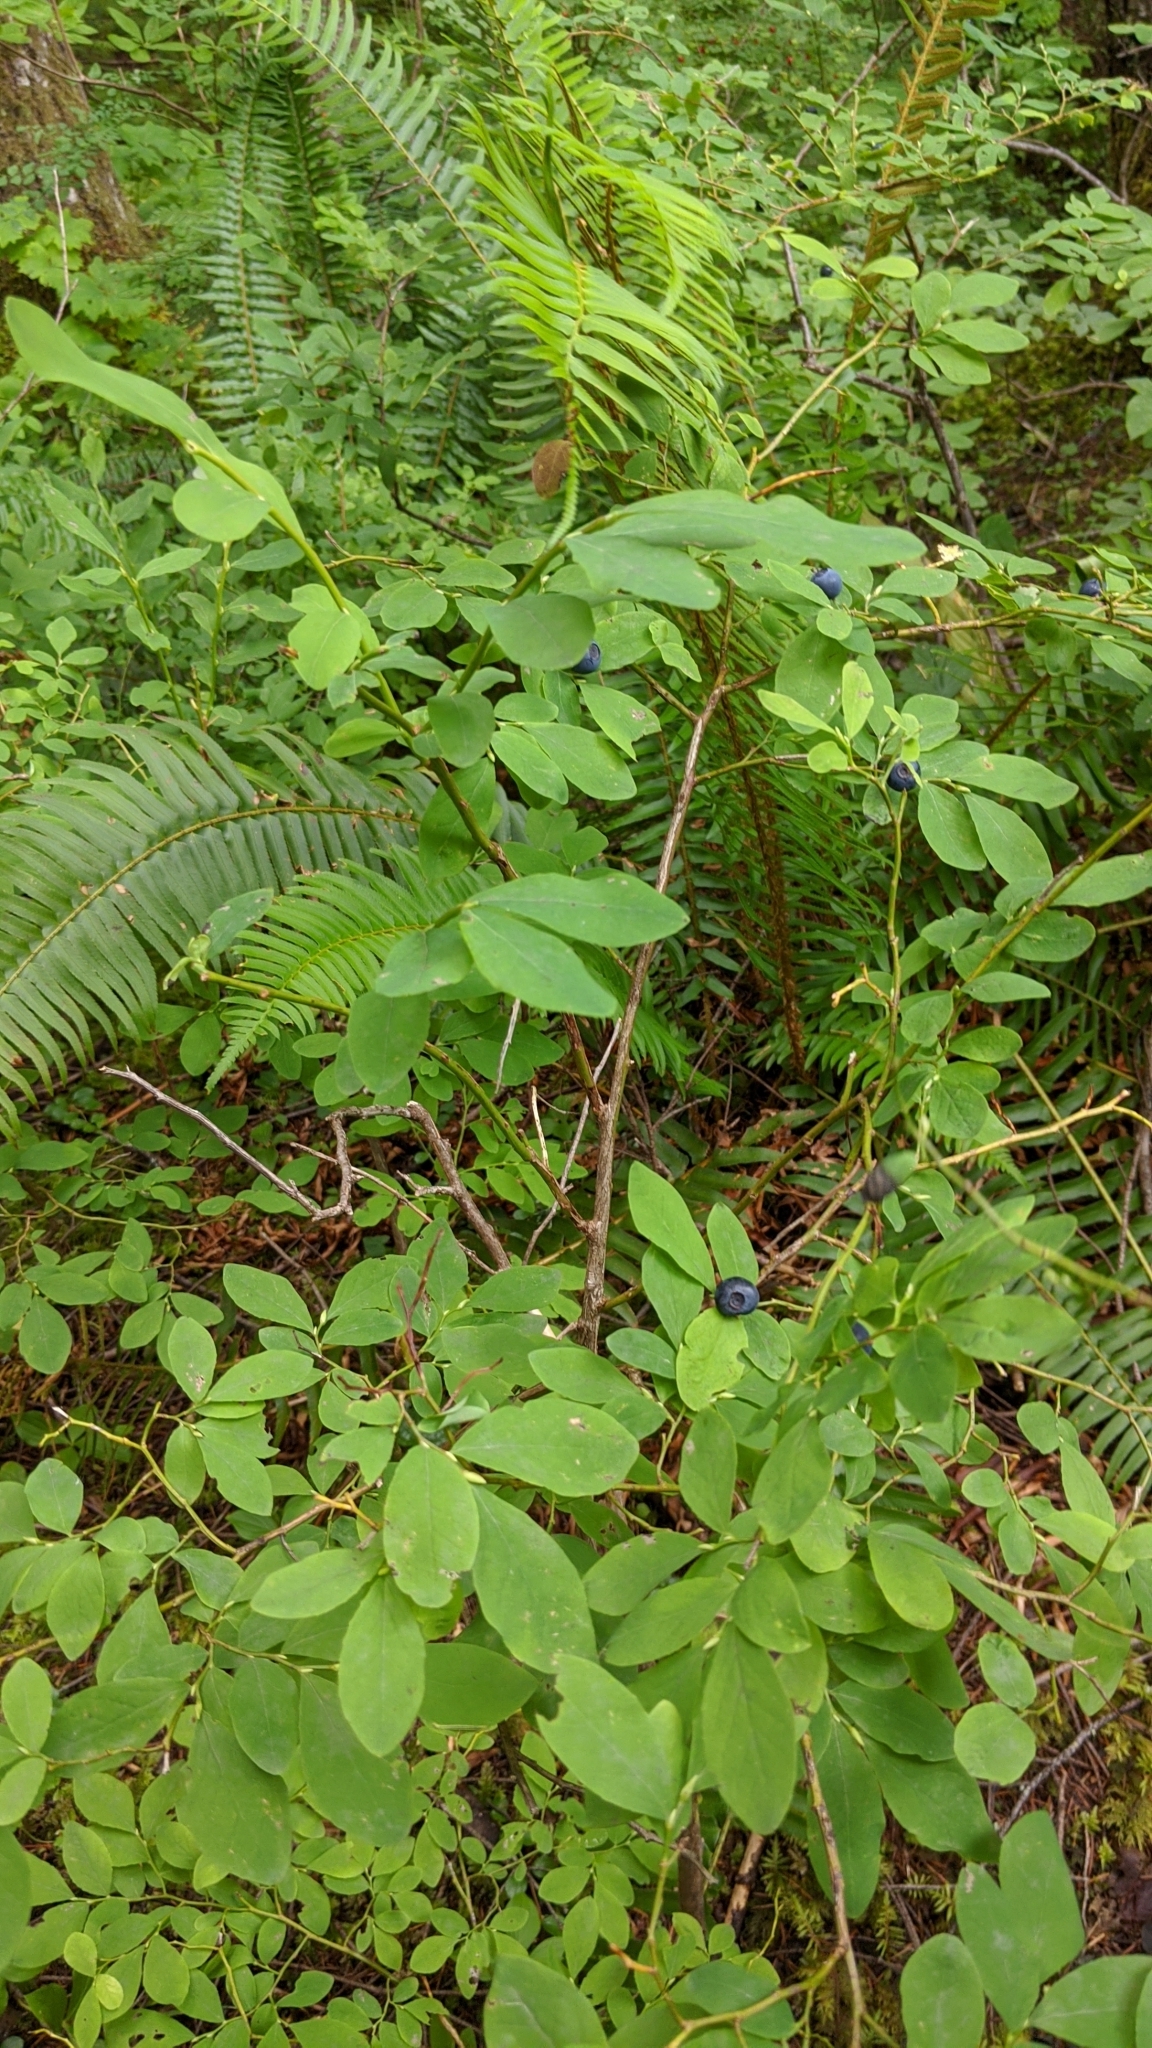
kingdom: Plantae
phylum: Tracheophyta
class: Magnoliopsida
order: Ericales
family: Ericaceae
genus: Vaccinium
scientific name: Vaccinium ovalifolium
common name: Early blueberry
